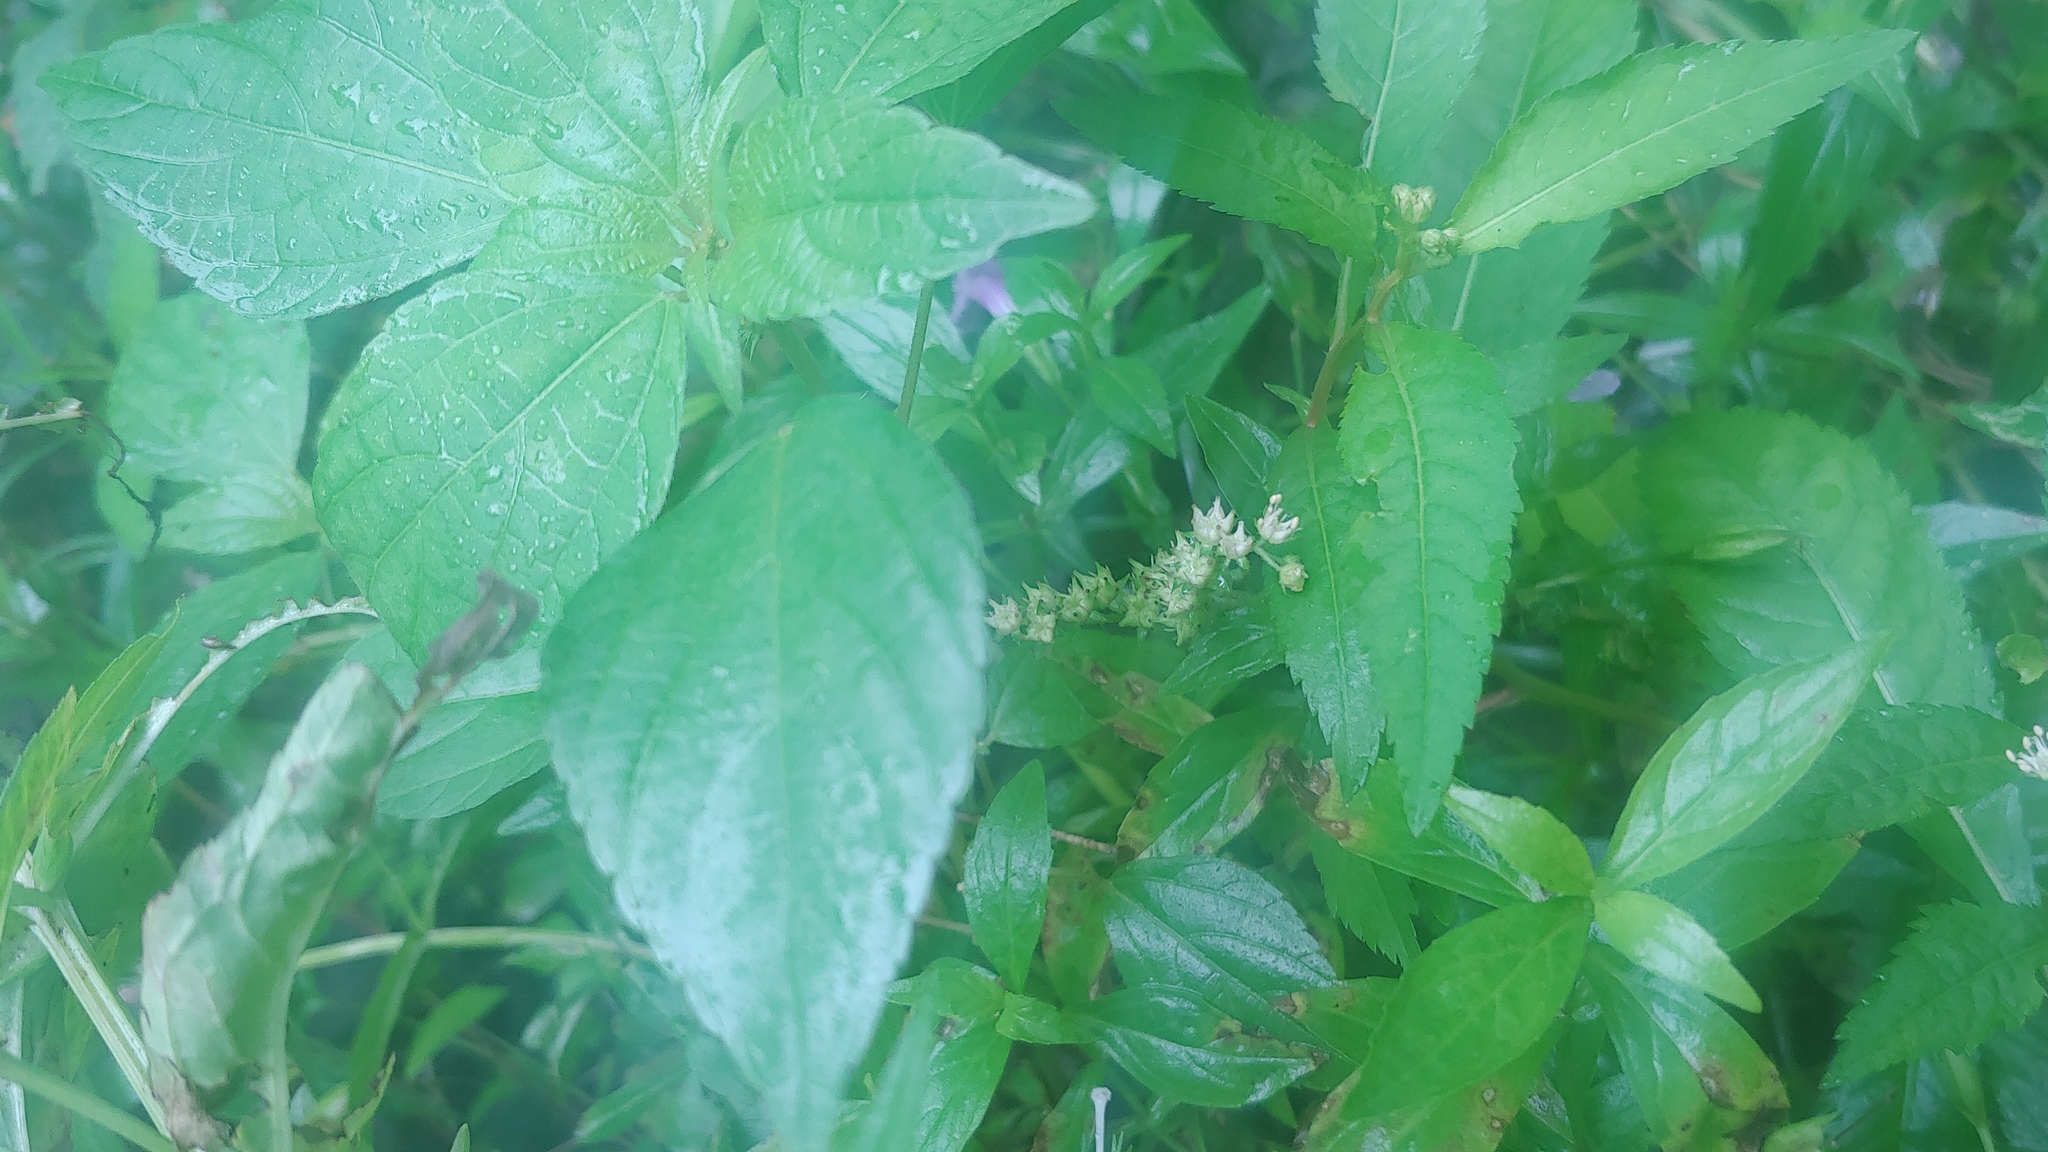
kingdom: Plantae
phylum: Tracheophyta
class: Magnoliopsida
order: Saxifragales
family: Penthoraceae
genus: Penthorum
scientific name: Penthorum sedoides
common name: Ditch stonecrop
